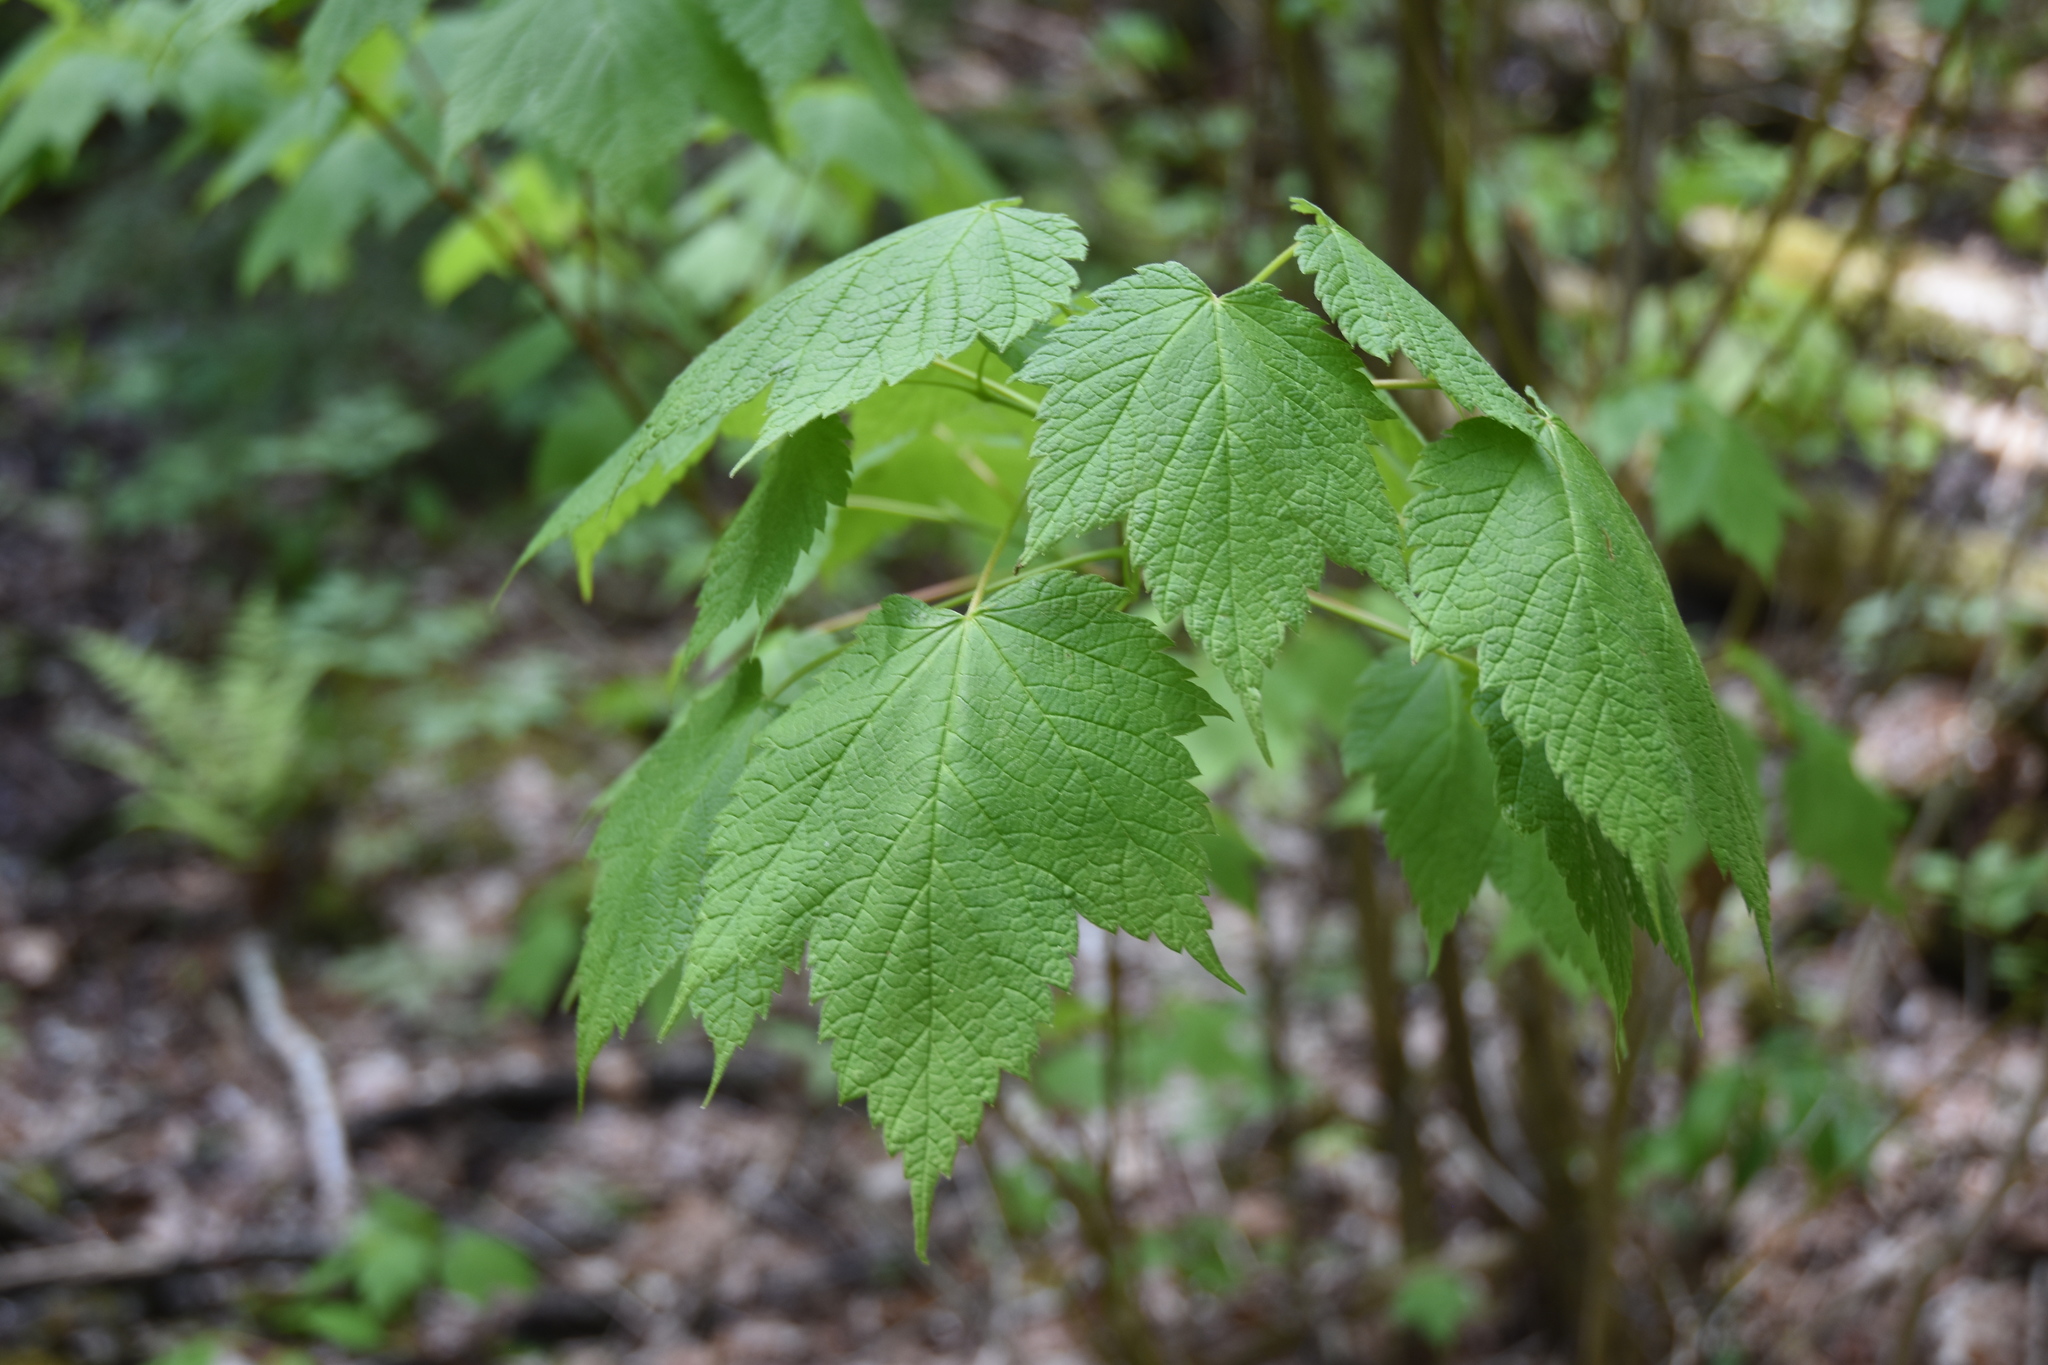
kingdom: Plantae
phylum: Tracheophyta
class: Magnoliopsida
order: Sapindales
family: Sapindaceae
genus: Acer
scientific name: Acer spicatum
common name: Mountain maple
